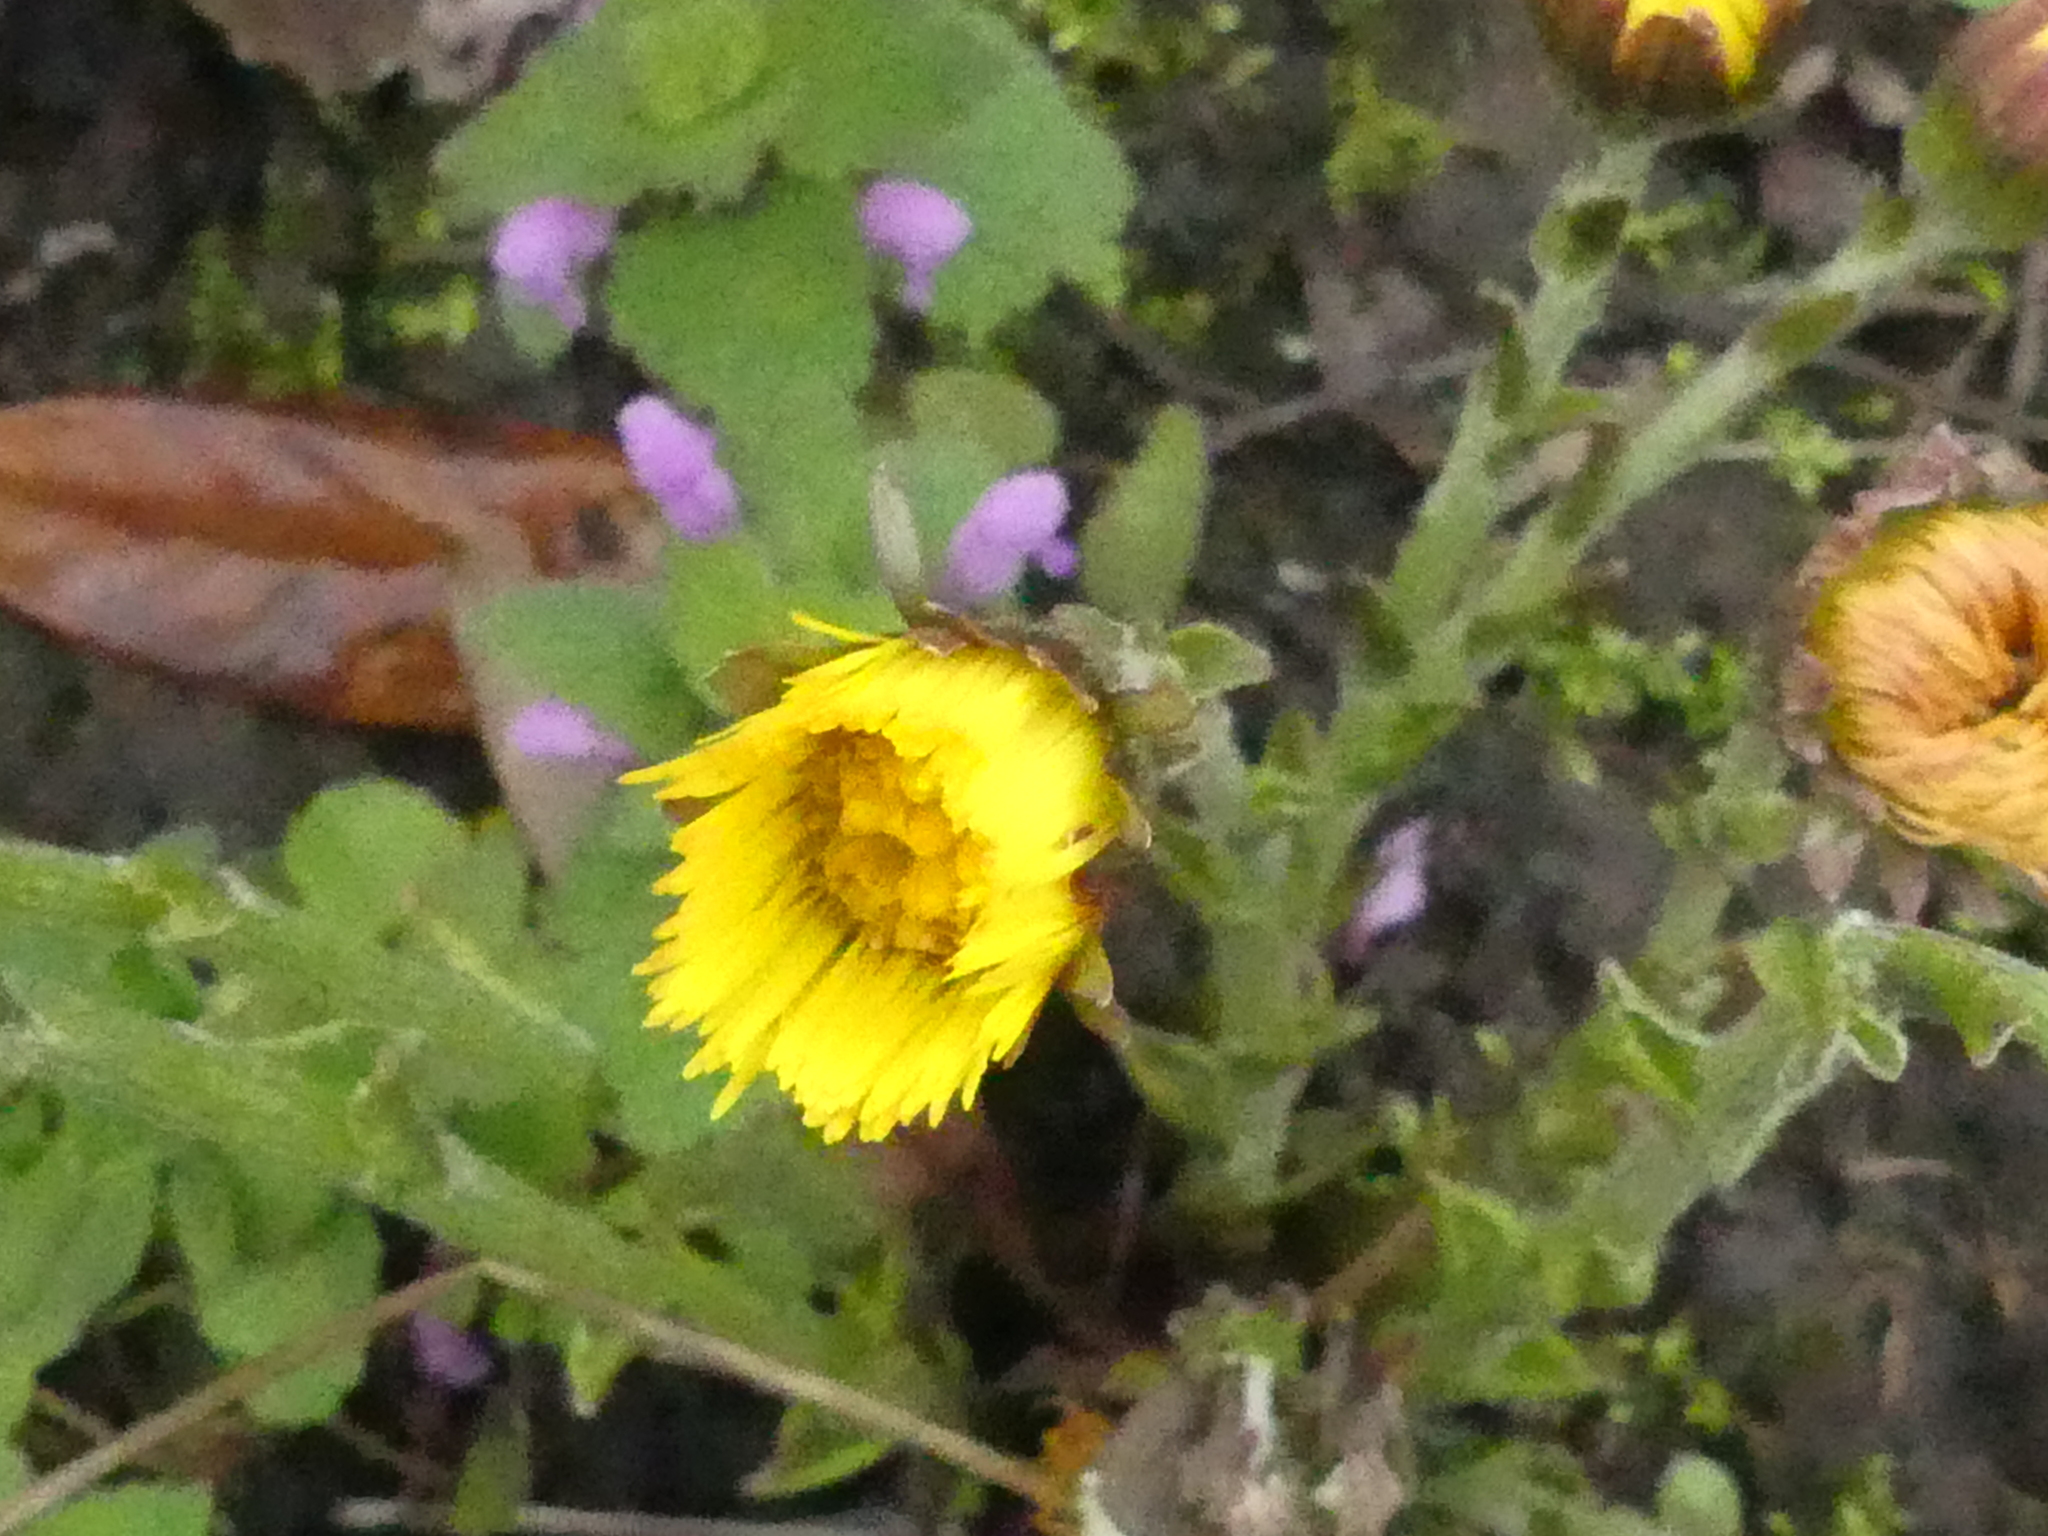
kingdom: Plantae
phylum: Tracheophyta
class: Magnoliopsida
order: Asterales
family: Asteraceae
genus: Tussilago
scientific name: Tussilago farfara
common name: Coltsfoot
